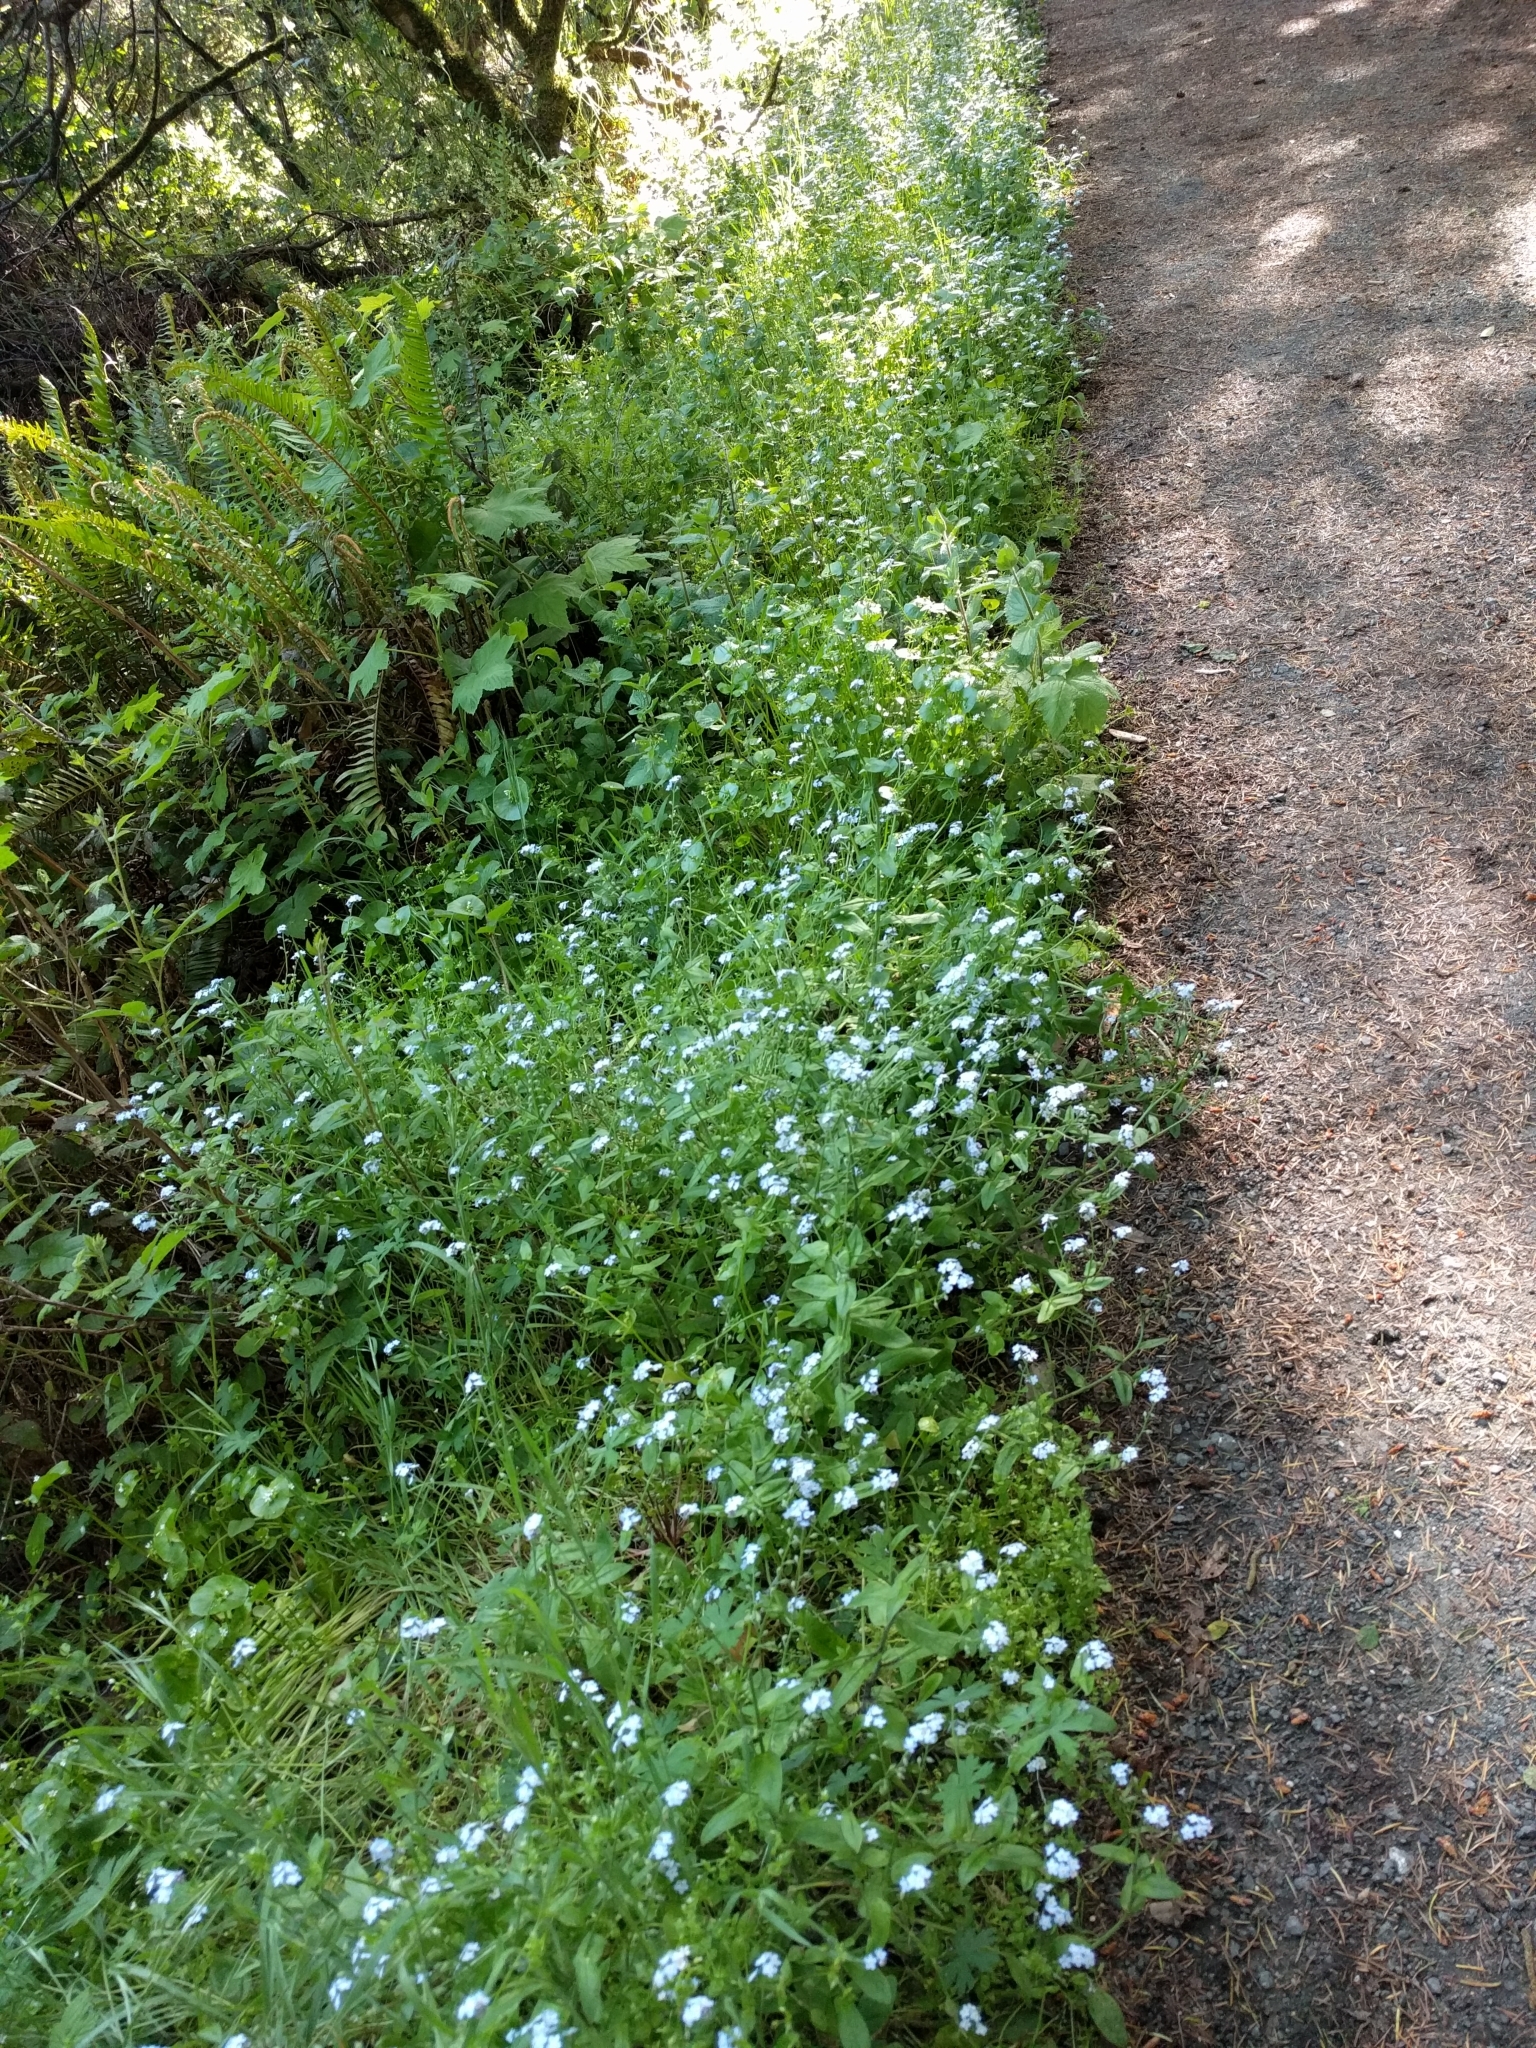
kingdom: Plantae
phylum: Tracheophyta
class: Magnoliopsida
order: Boraginales
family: Boraginaceae
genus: Myosotis
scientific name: Myosotis latifolia
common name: Broadleaf forget-me-not
